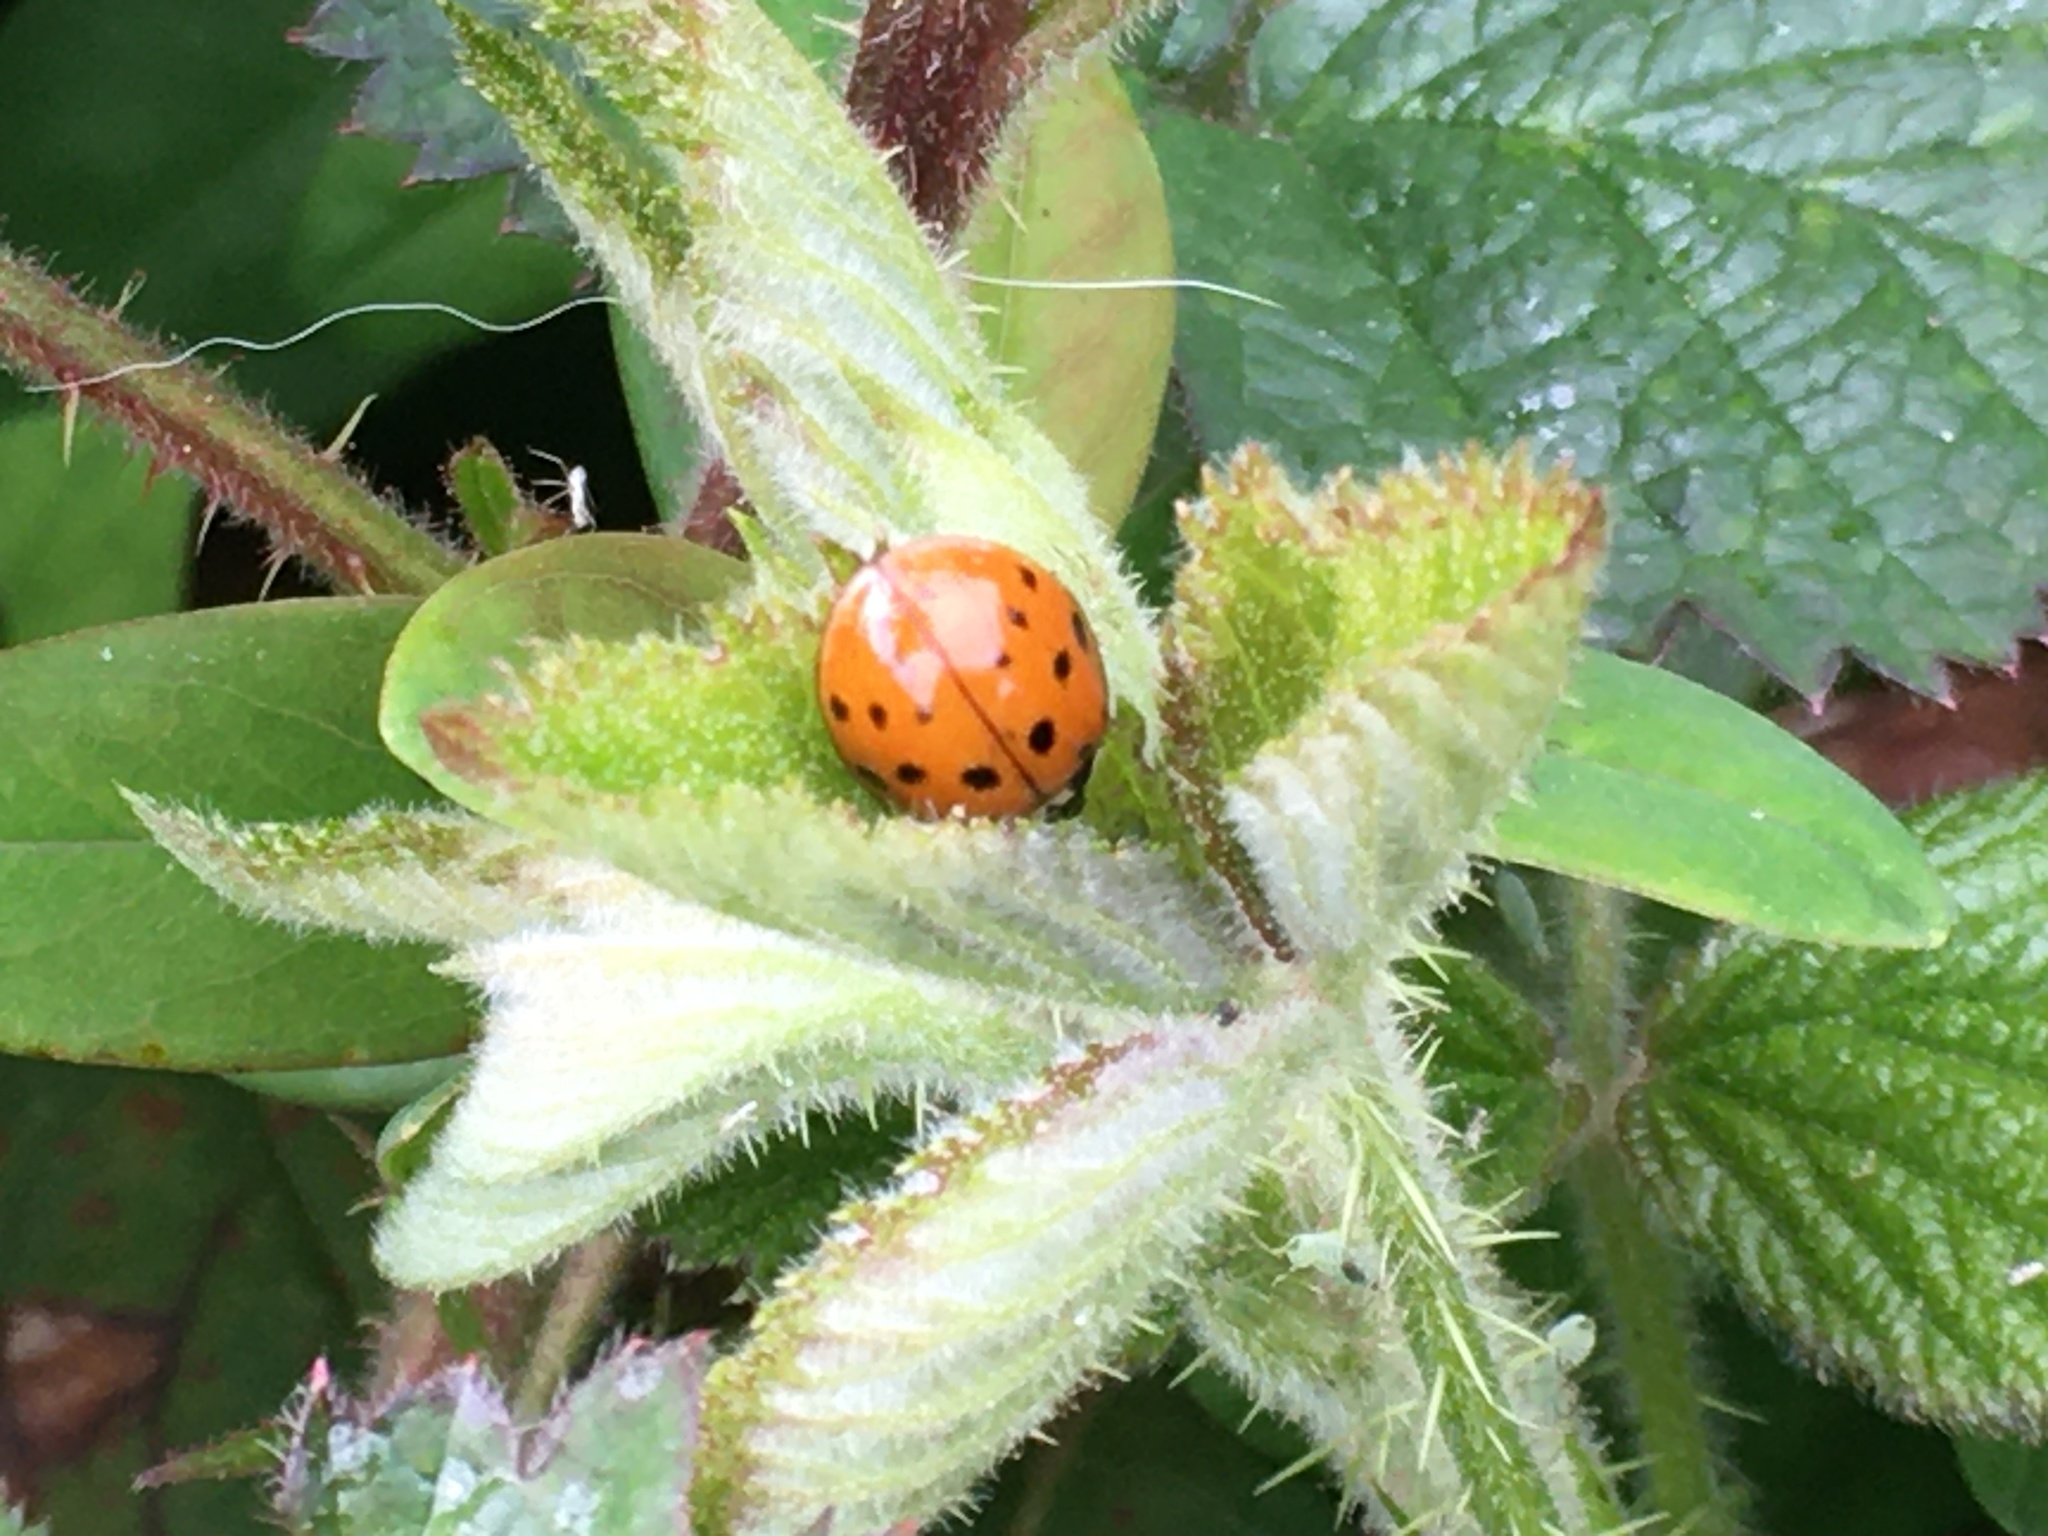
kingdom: Animalia
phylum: Arthropoda
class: Insecta
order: Coleoptera
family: Coccinellidae
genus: Harmonia
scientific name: Harmonia axyridis
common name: Harlequin ladybird
